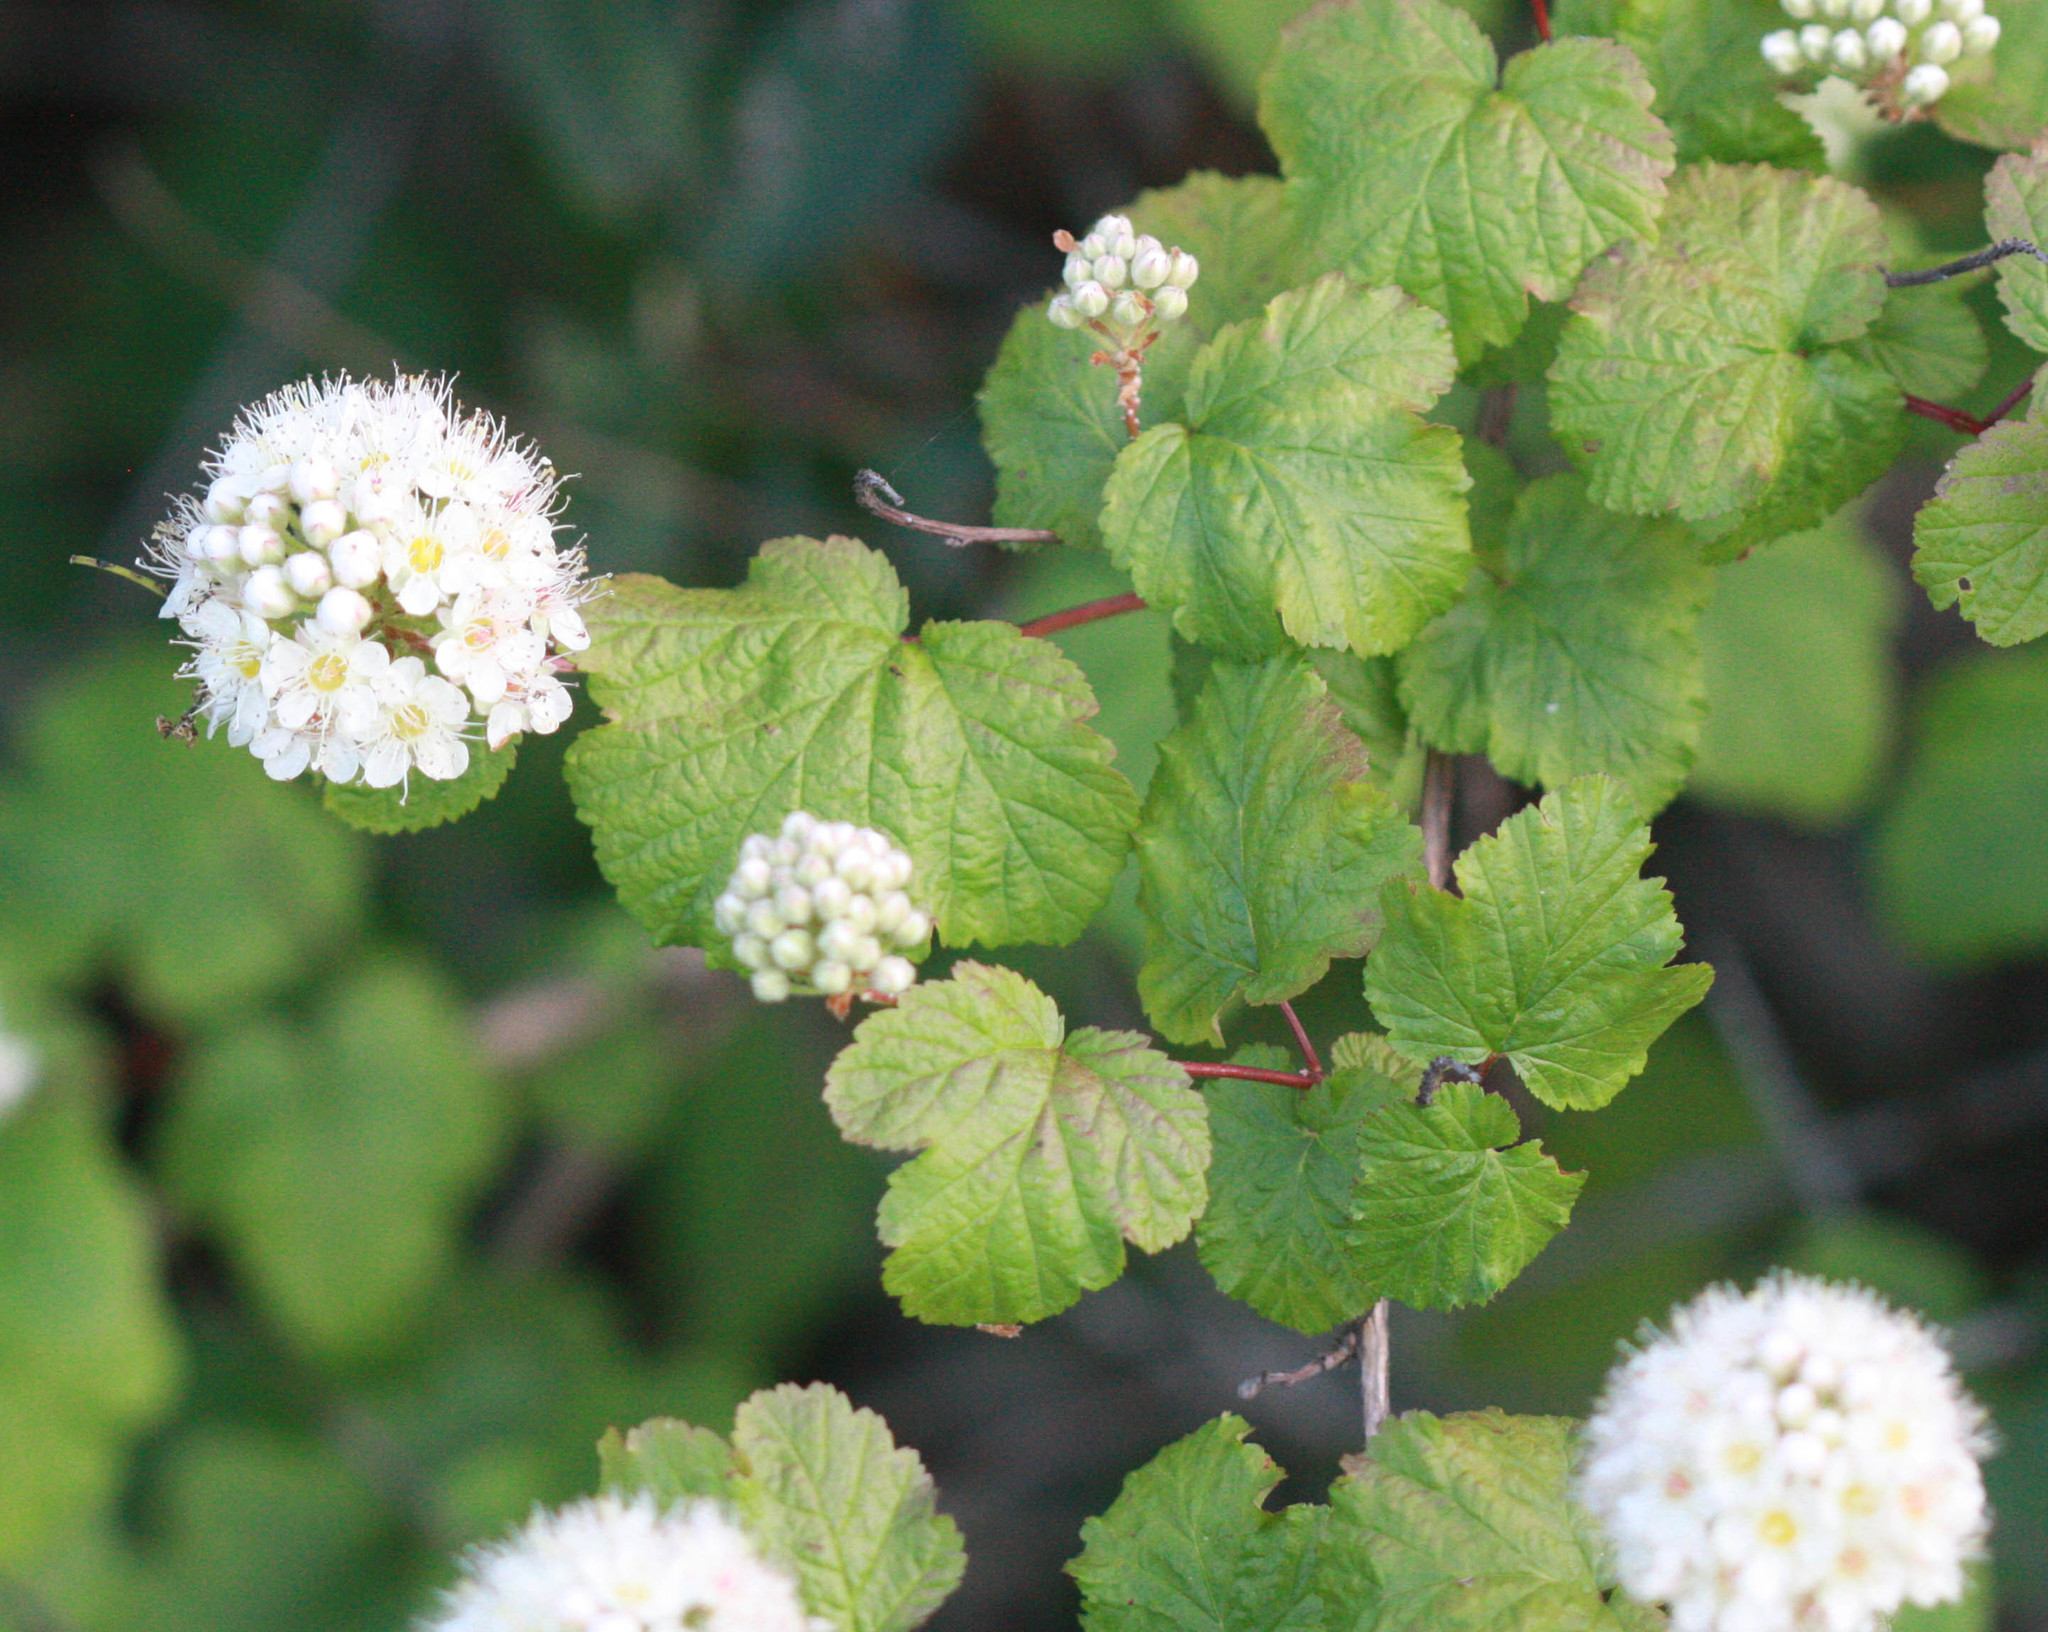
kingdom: Plantae
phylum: Tracheophyta
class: Magnoliopsida
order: Rosales
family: Rosaceae
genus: Physocarpus
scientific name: Physocarpus capitatus
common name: Pacific ninebark
